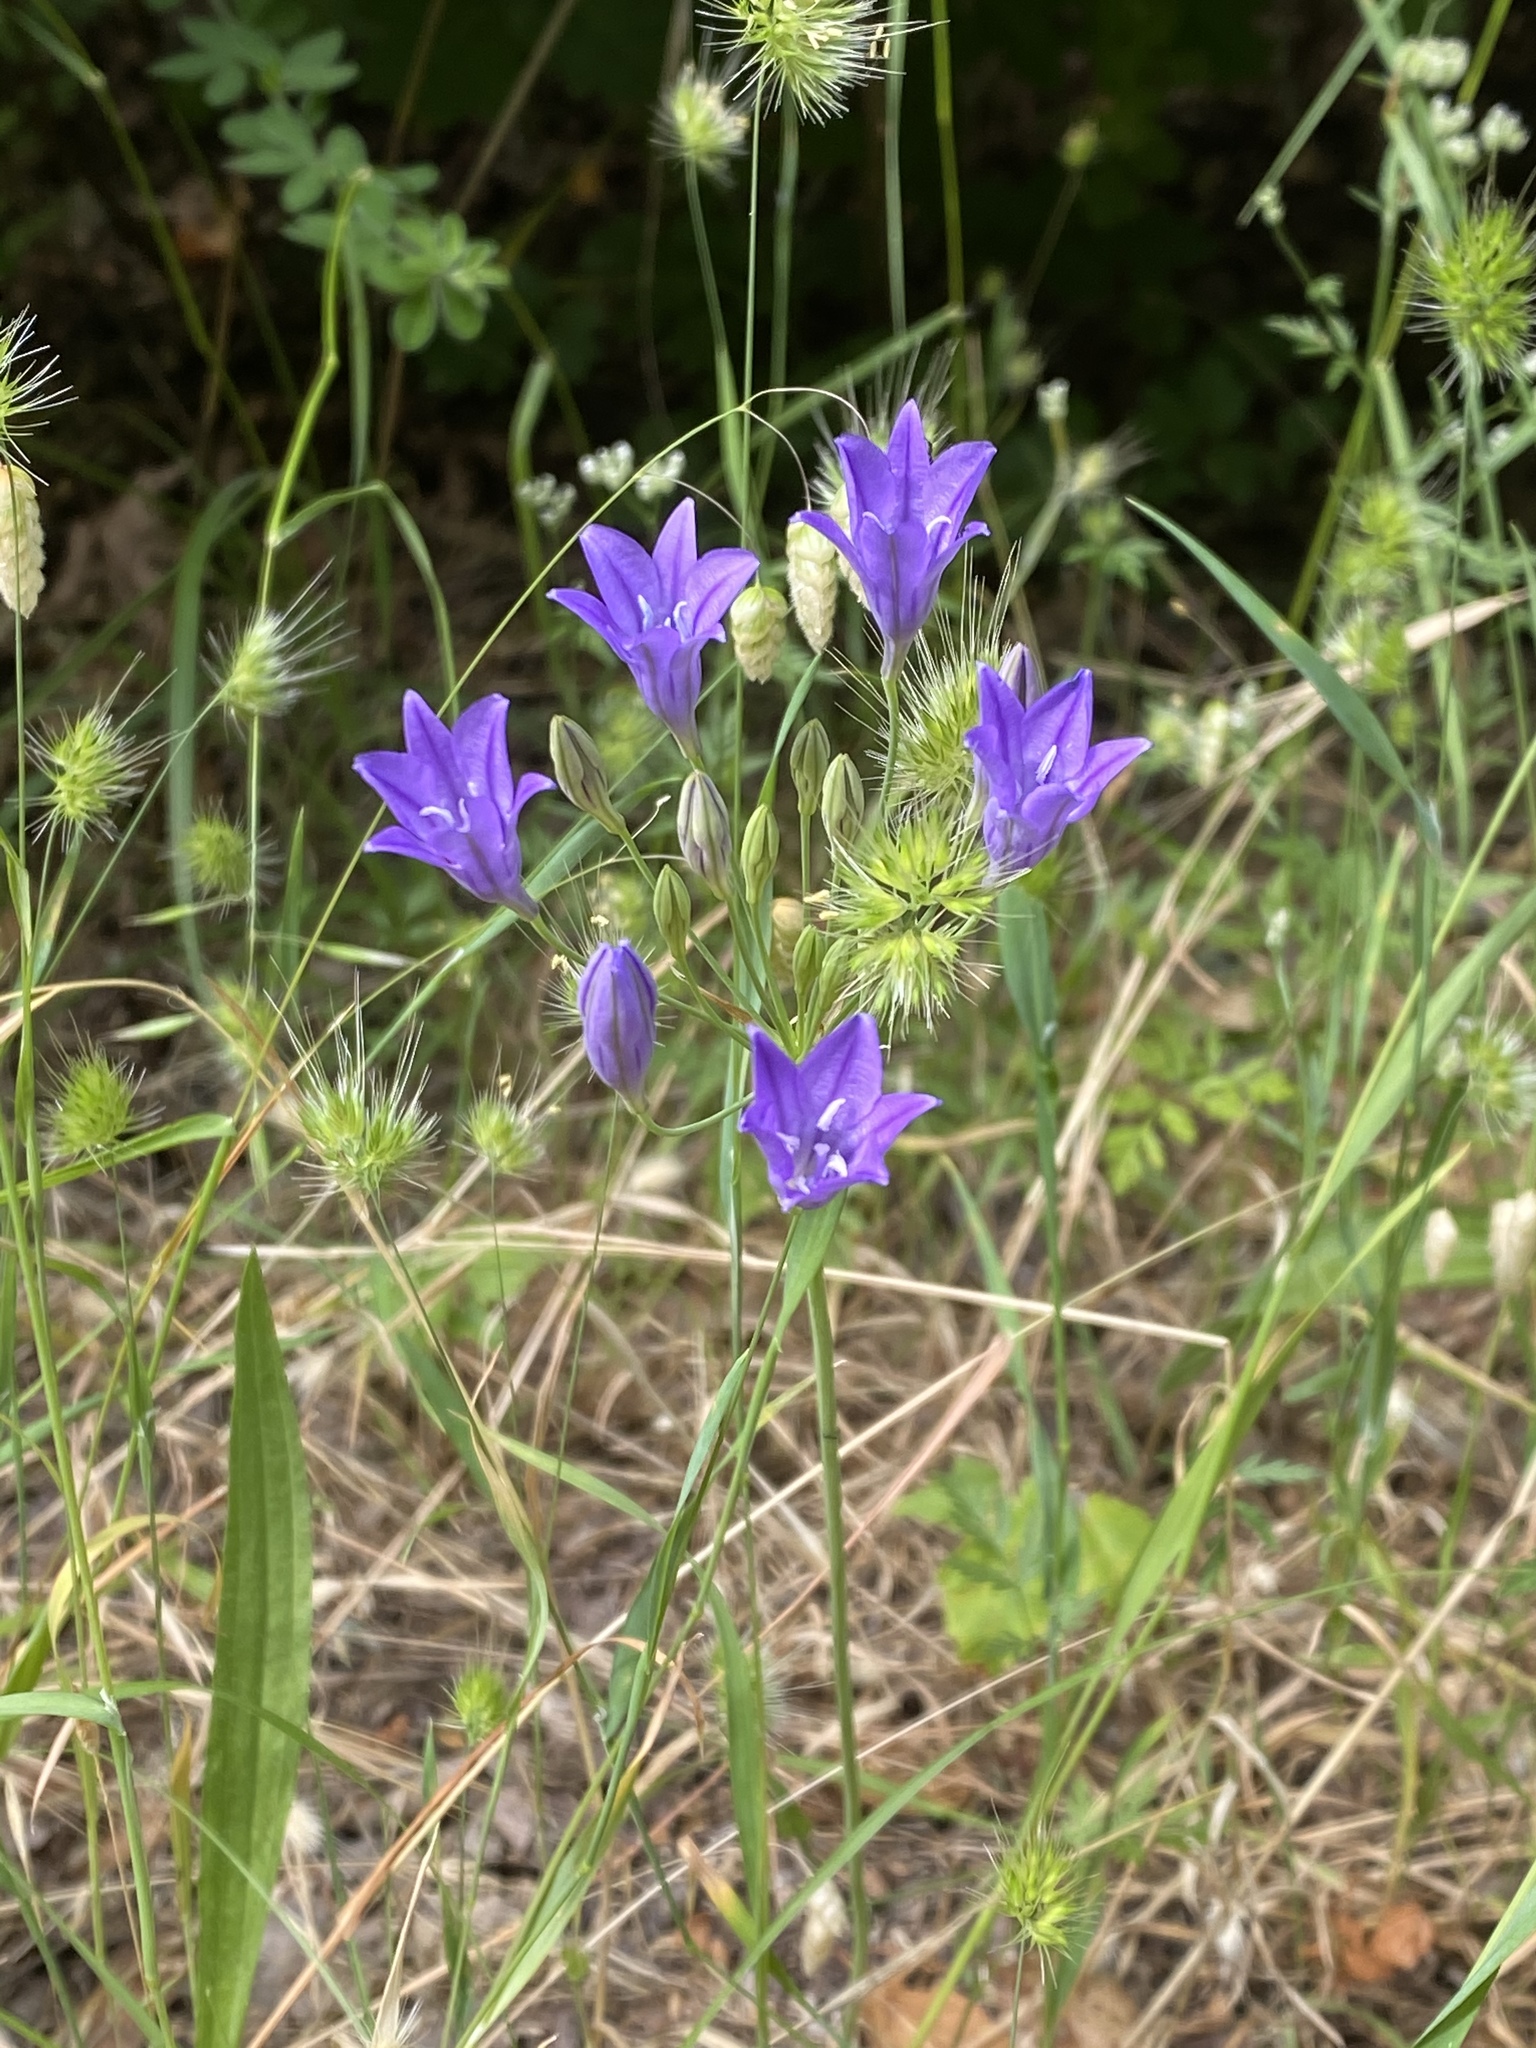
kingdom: Plantae
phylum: Tracheophyta
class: Liliopsida
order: Asparagales
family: Asparagaceae
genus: Triteleia
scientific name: Triteleia laxa
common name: Triplet-lily
